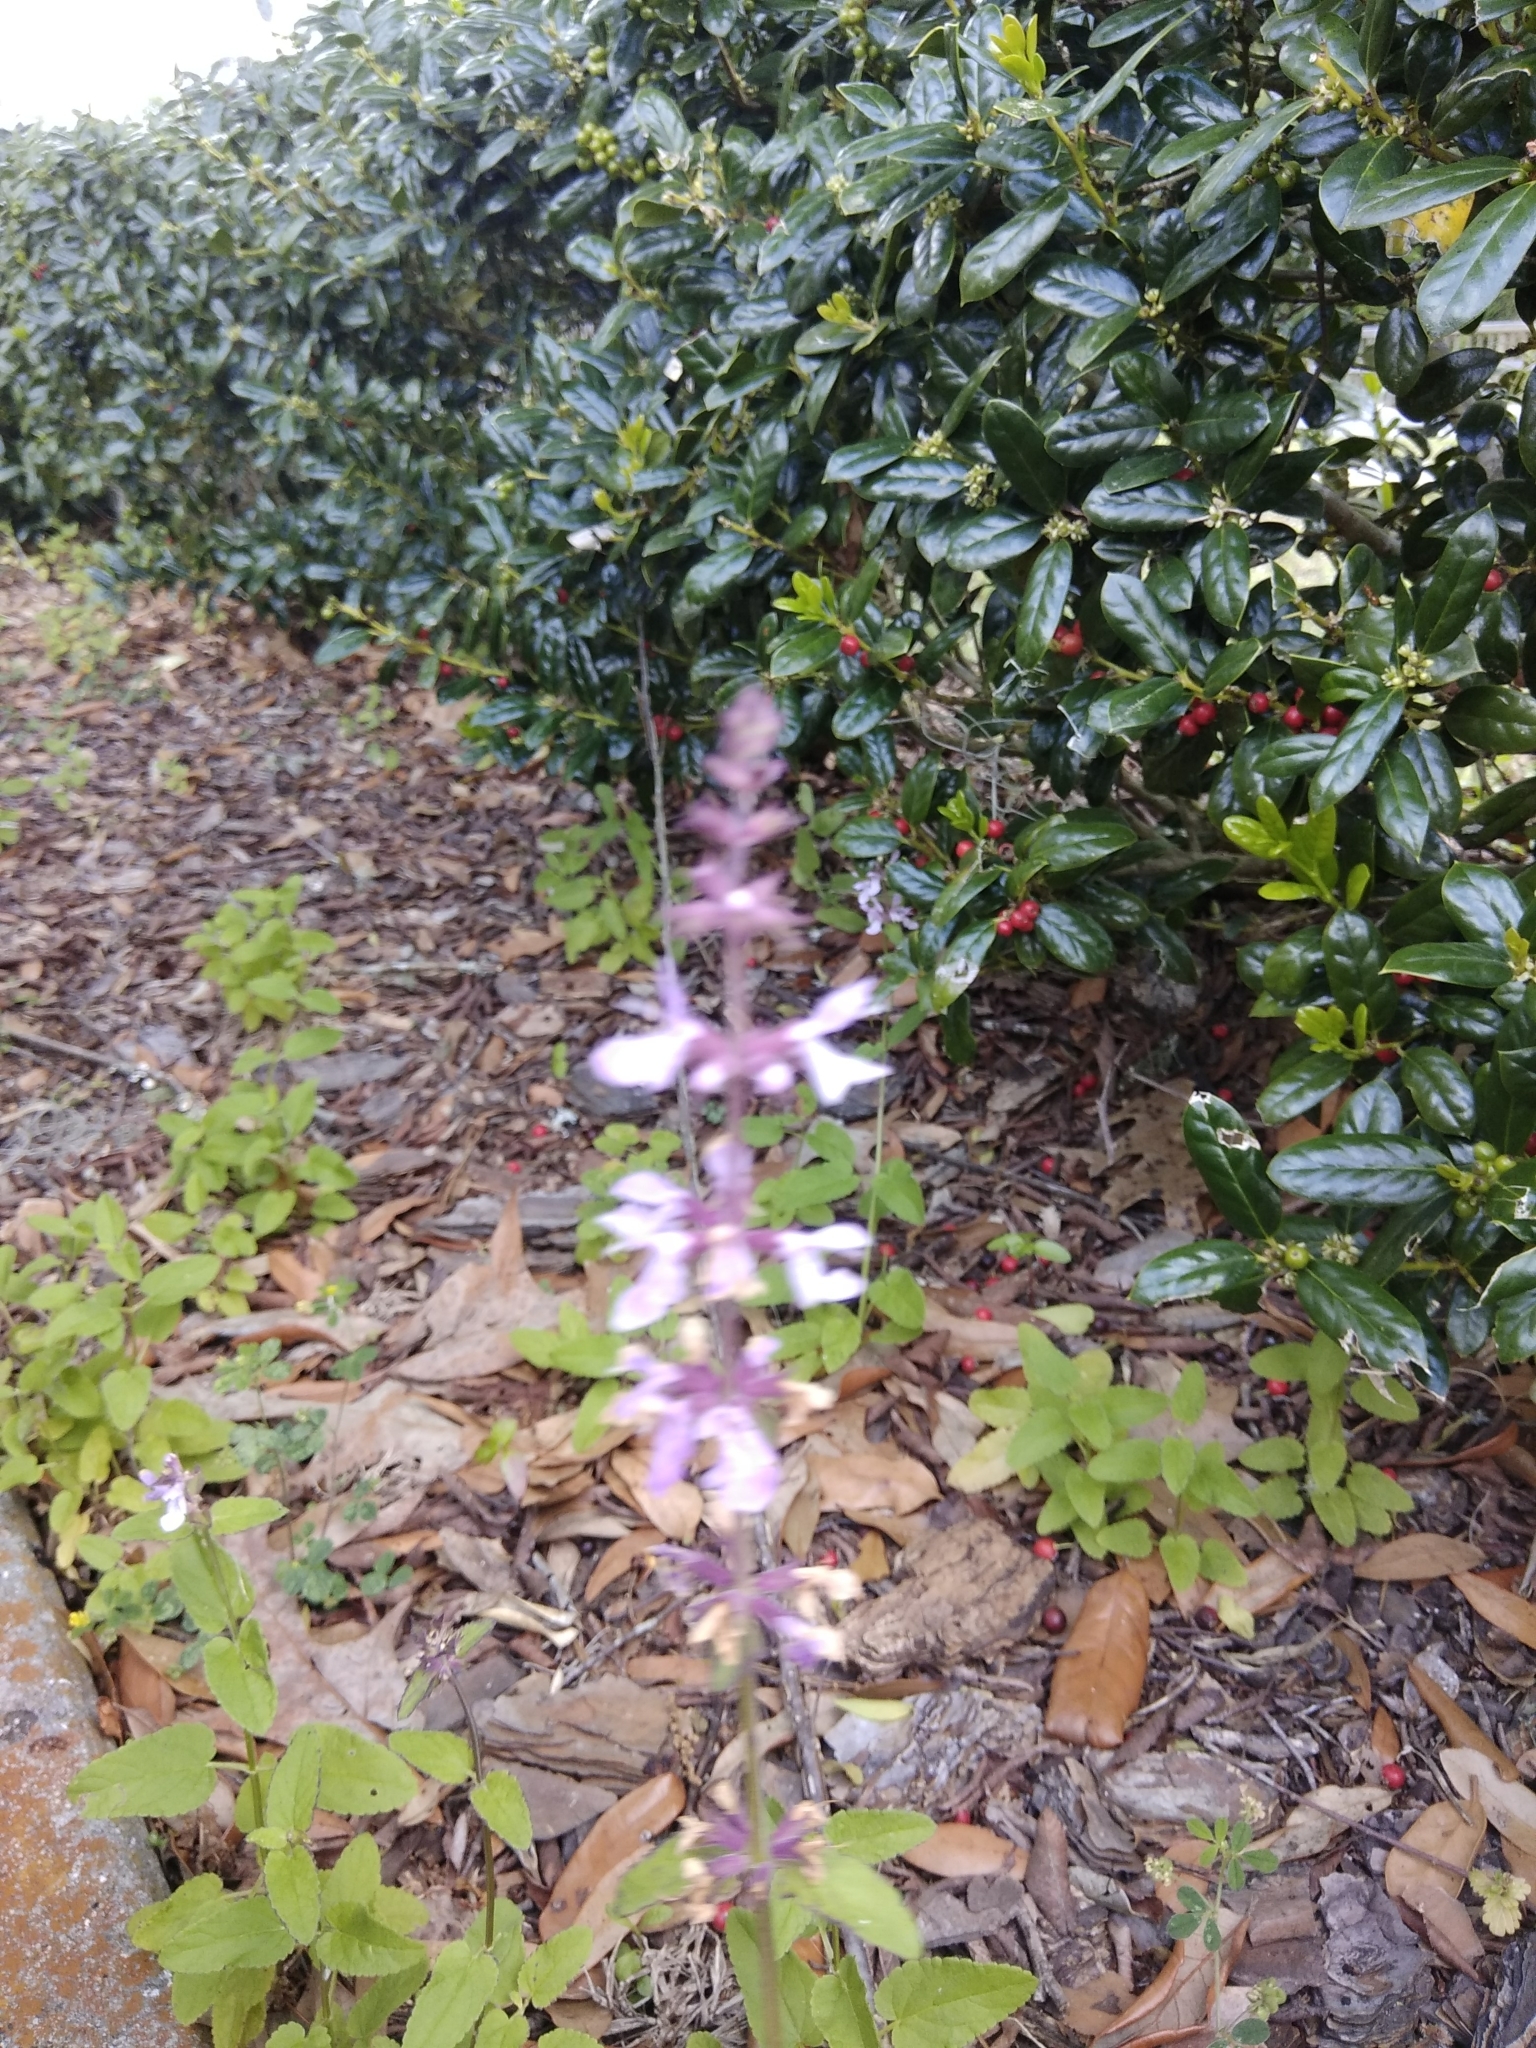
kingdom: Plantae
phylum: Tracheophyta
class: Magnoliopsida
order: Lamiales
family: Lamiaceae
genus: Stachys
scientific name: Stachys floridana
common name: Florida betony
